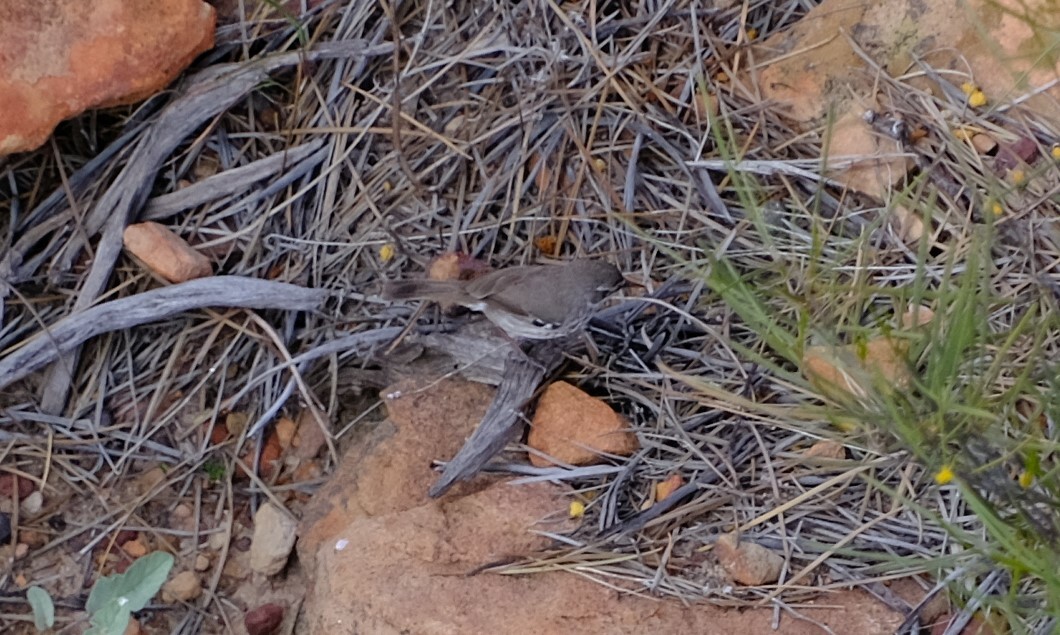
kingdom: Animalia
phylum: Chordata
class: Aves
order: Passeriformes
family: Acanthizidae
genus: Sericornis
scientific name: Sericornis maculatus
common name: Spotted scrubwren
